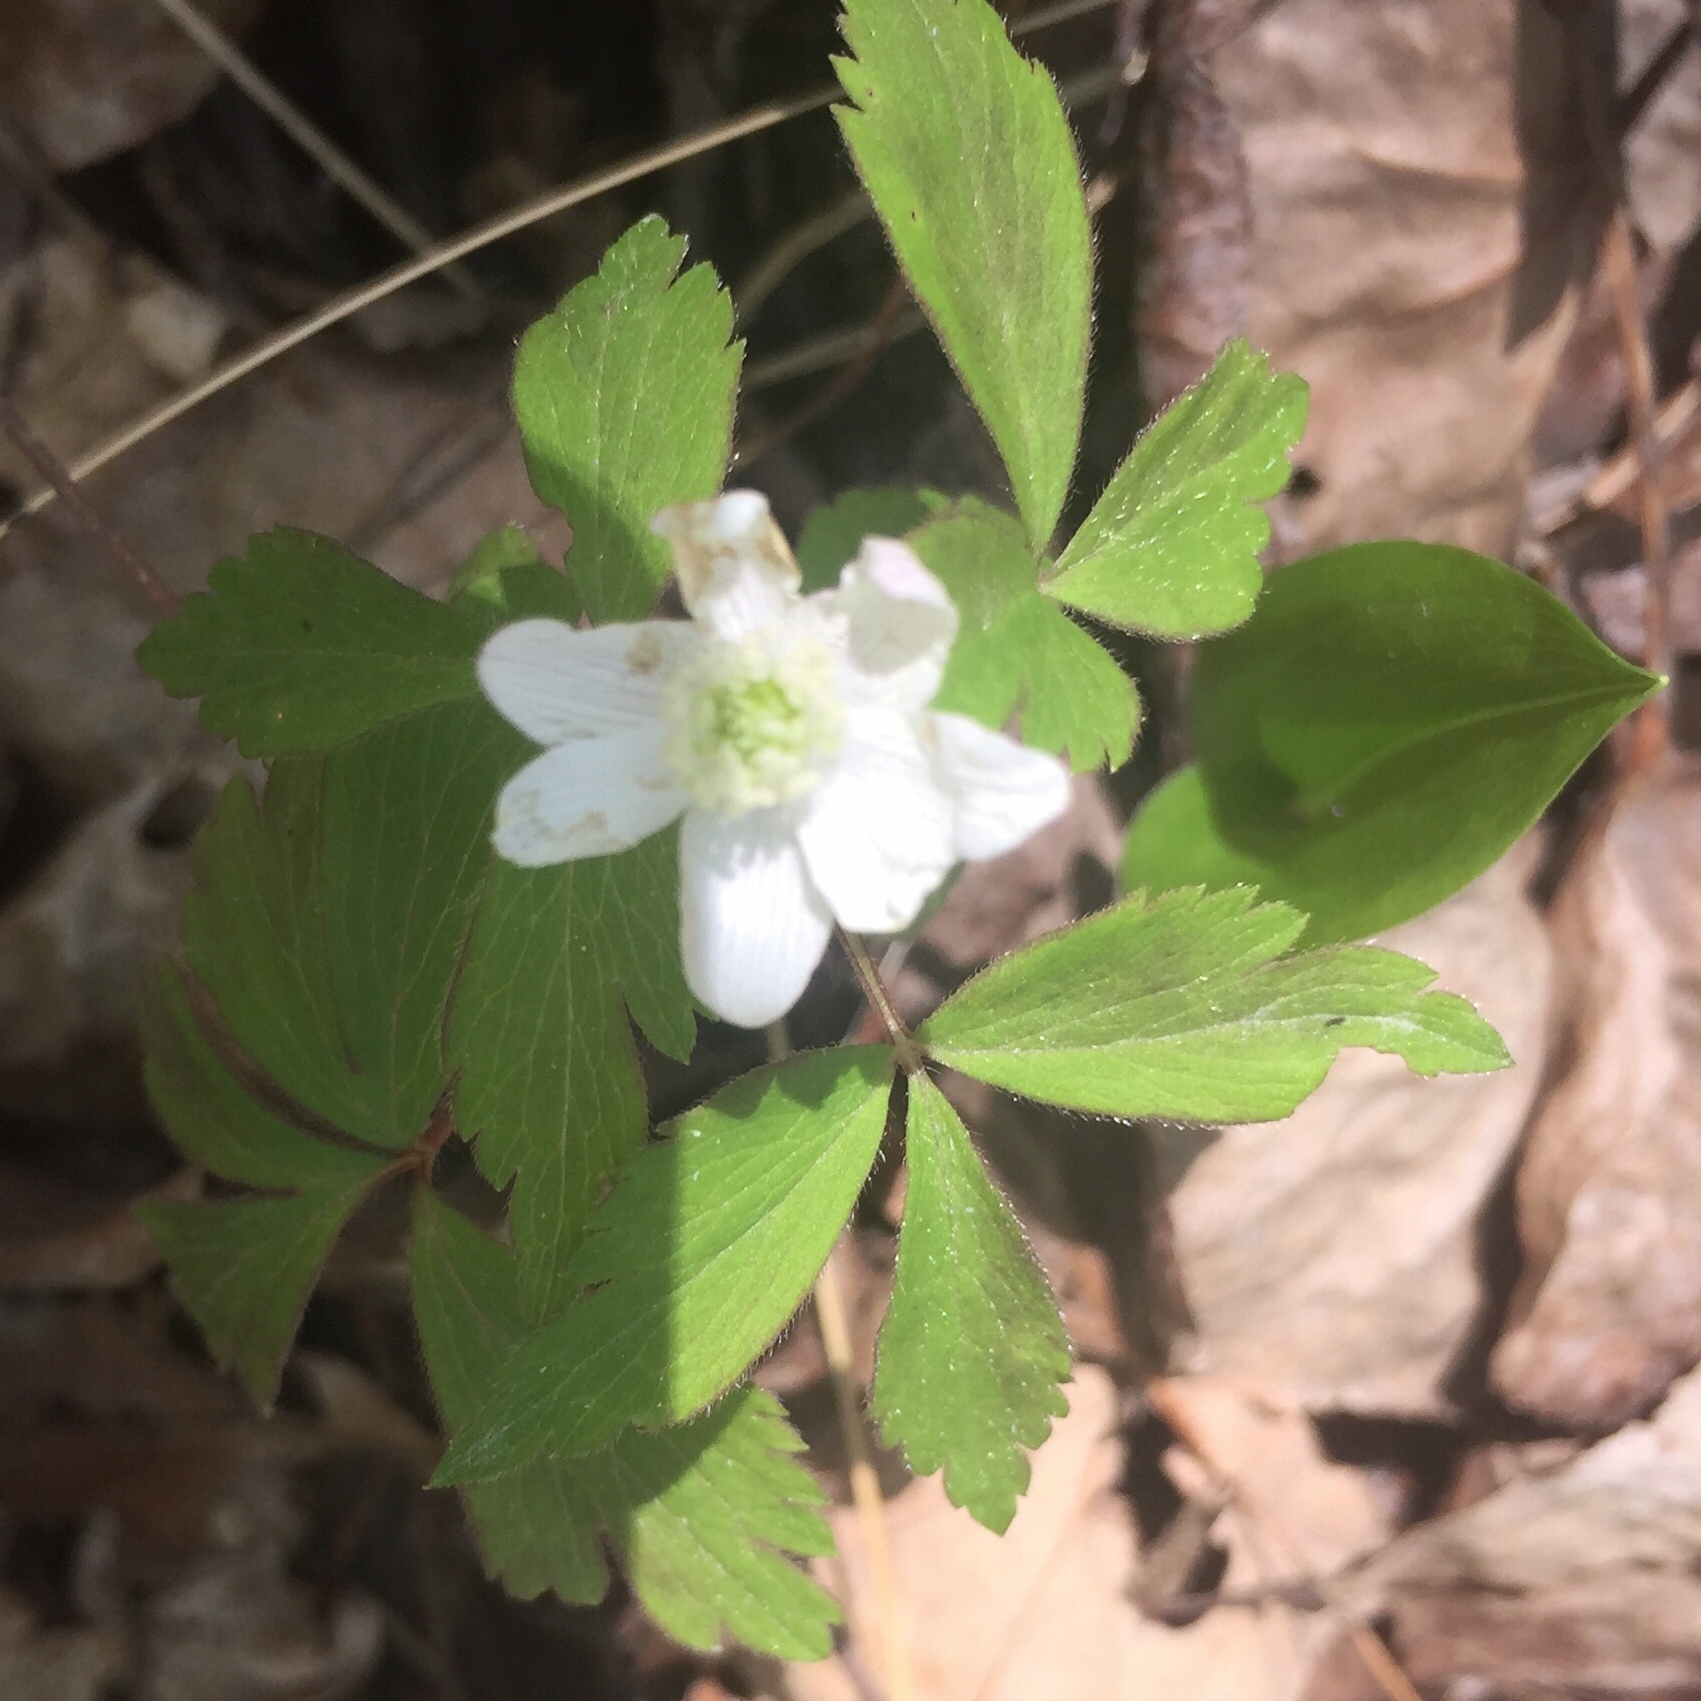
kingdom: Plantae
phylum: Tracheophyta
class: Magnoliopsida
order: Ranunculales
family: Ranunculaceae
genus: Anemone
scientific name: Anemone quinquefolia
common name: Wood anemone
